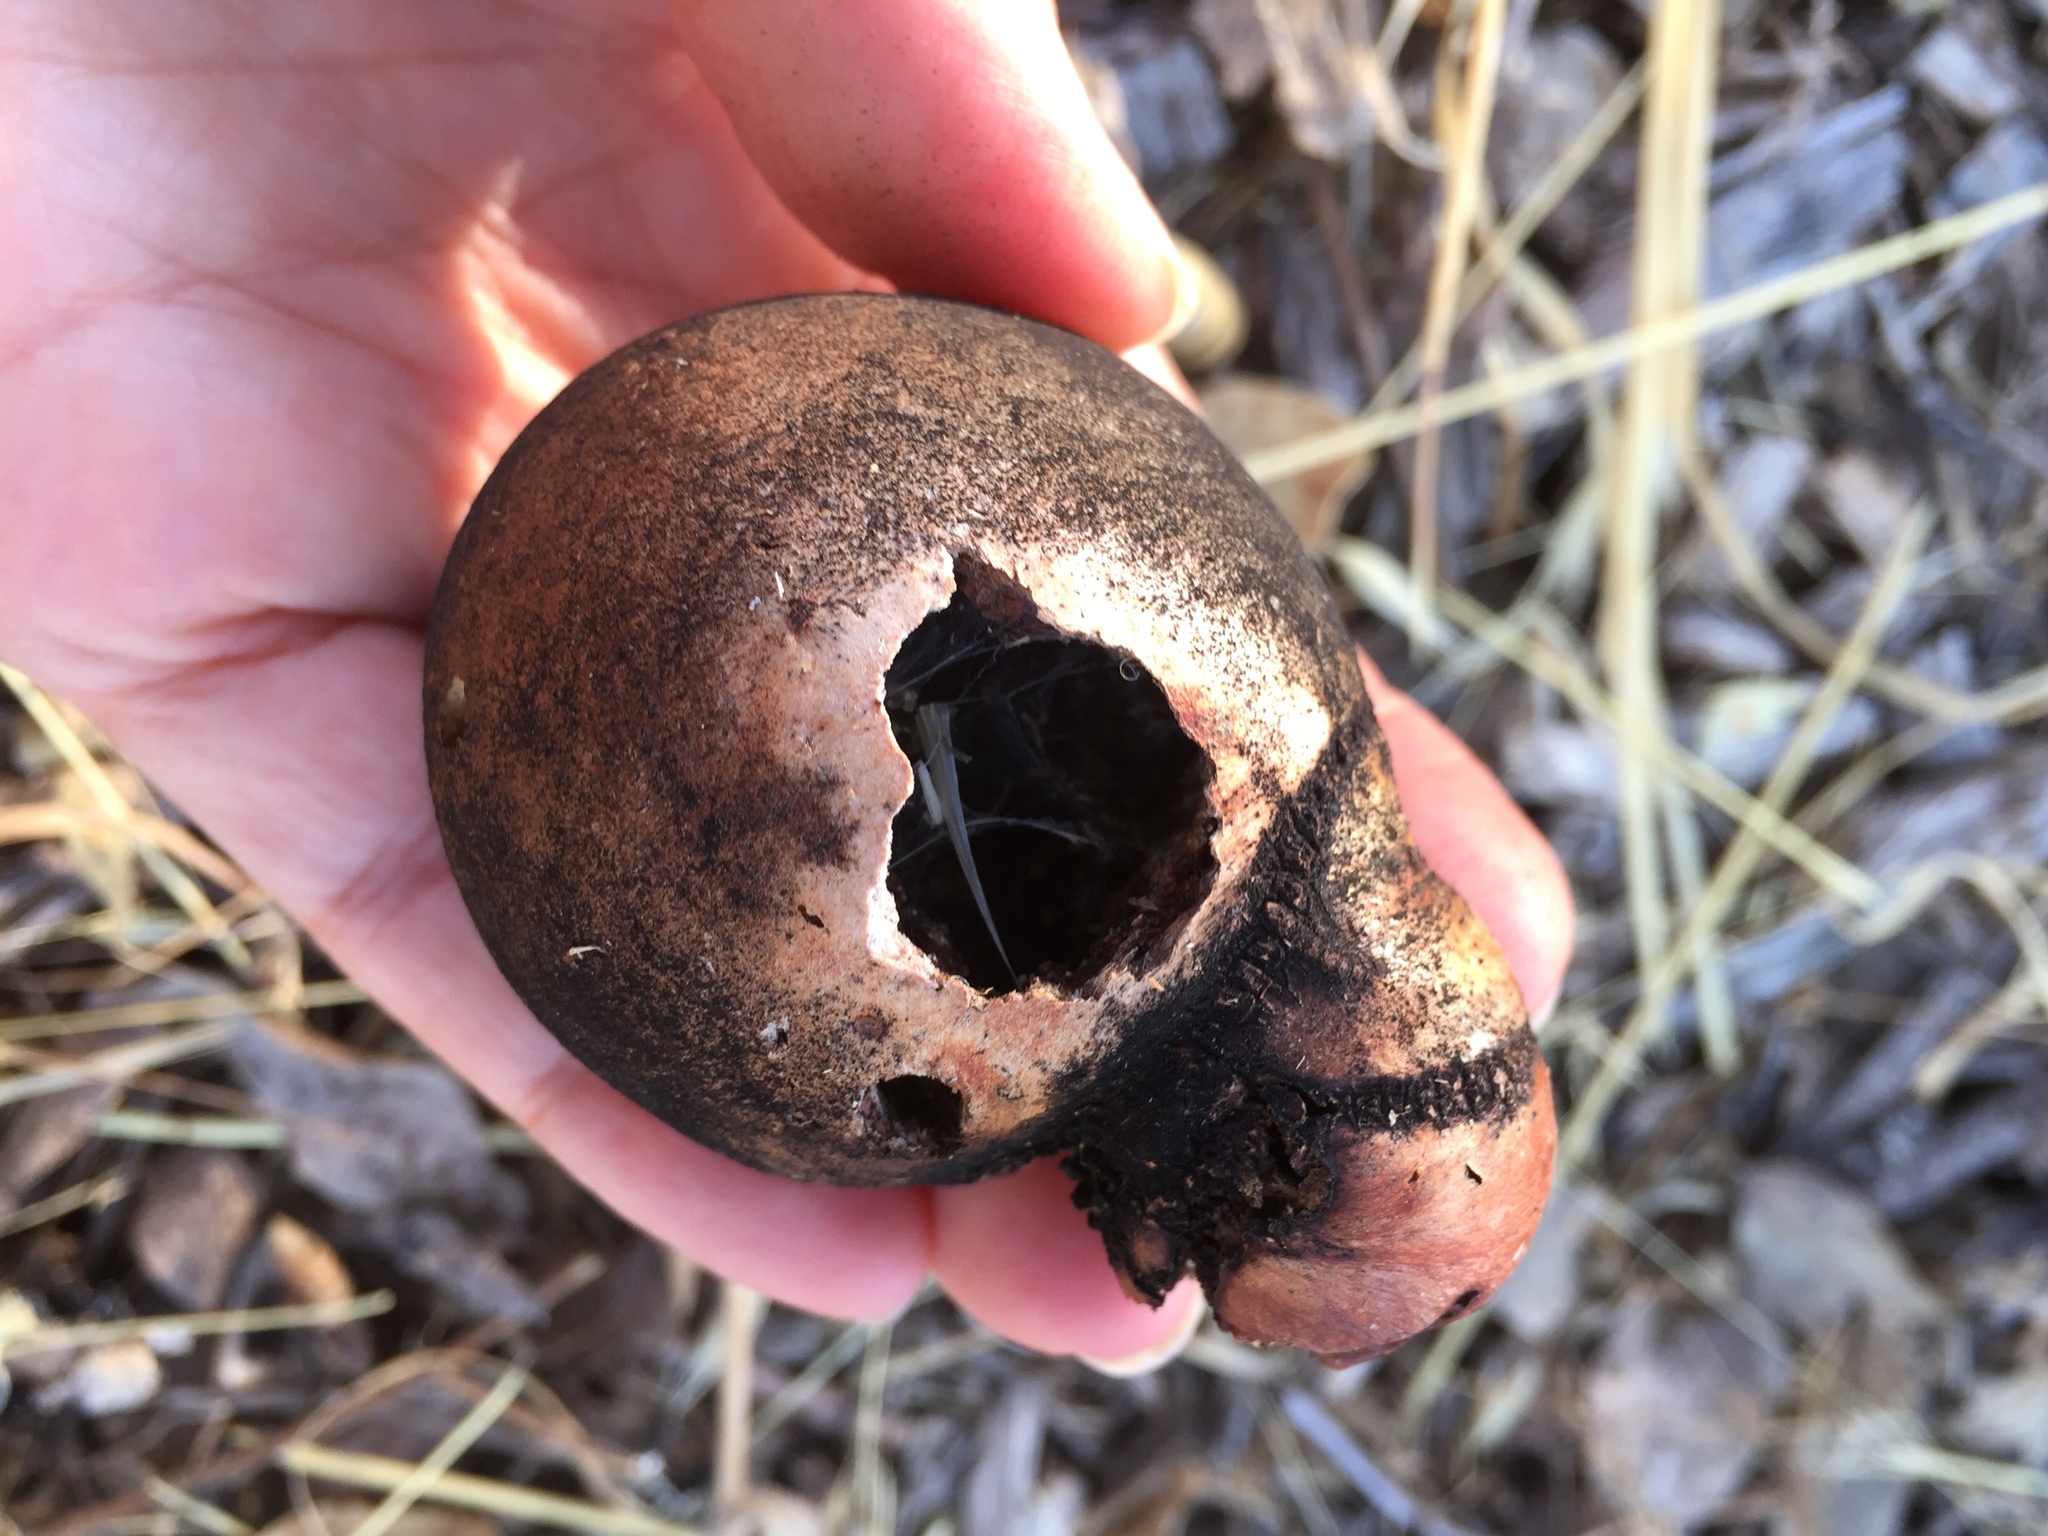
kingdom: Animalia
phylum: Arthropoda
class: Insecta
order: Hymenoptera
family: Cynipidae
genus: Andricus
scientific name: Andricus quercuscalifornicus
